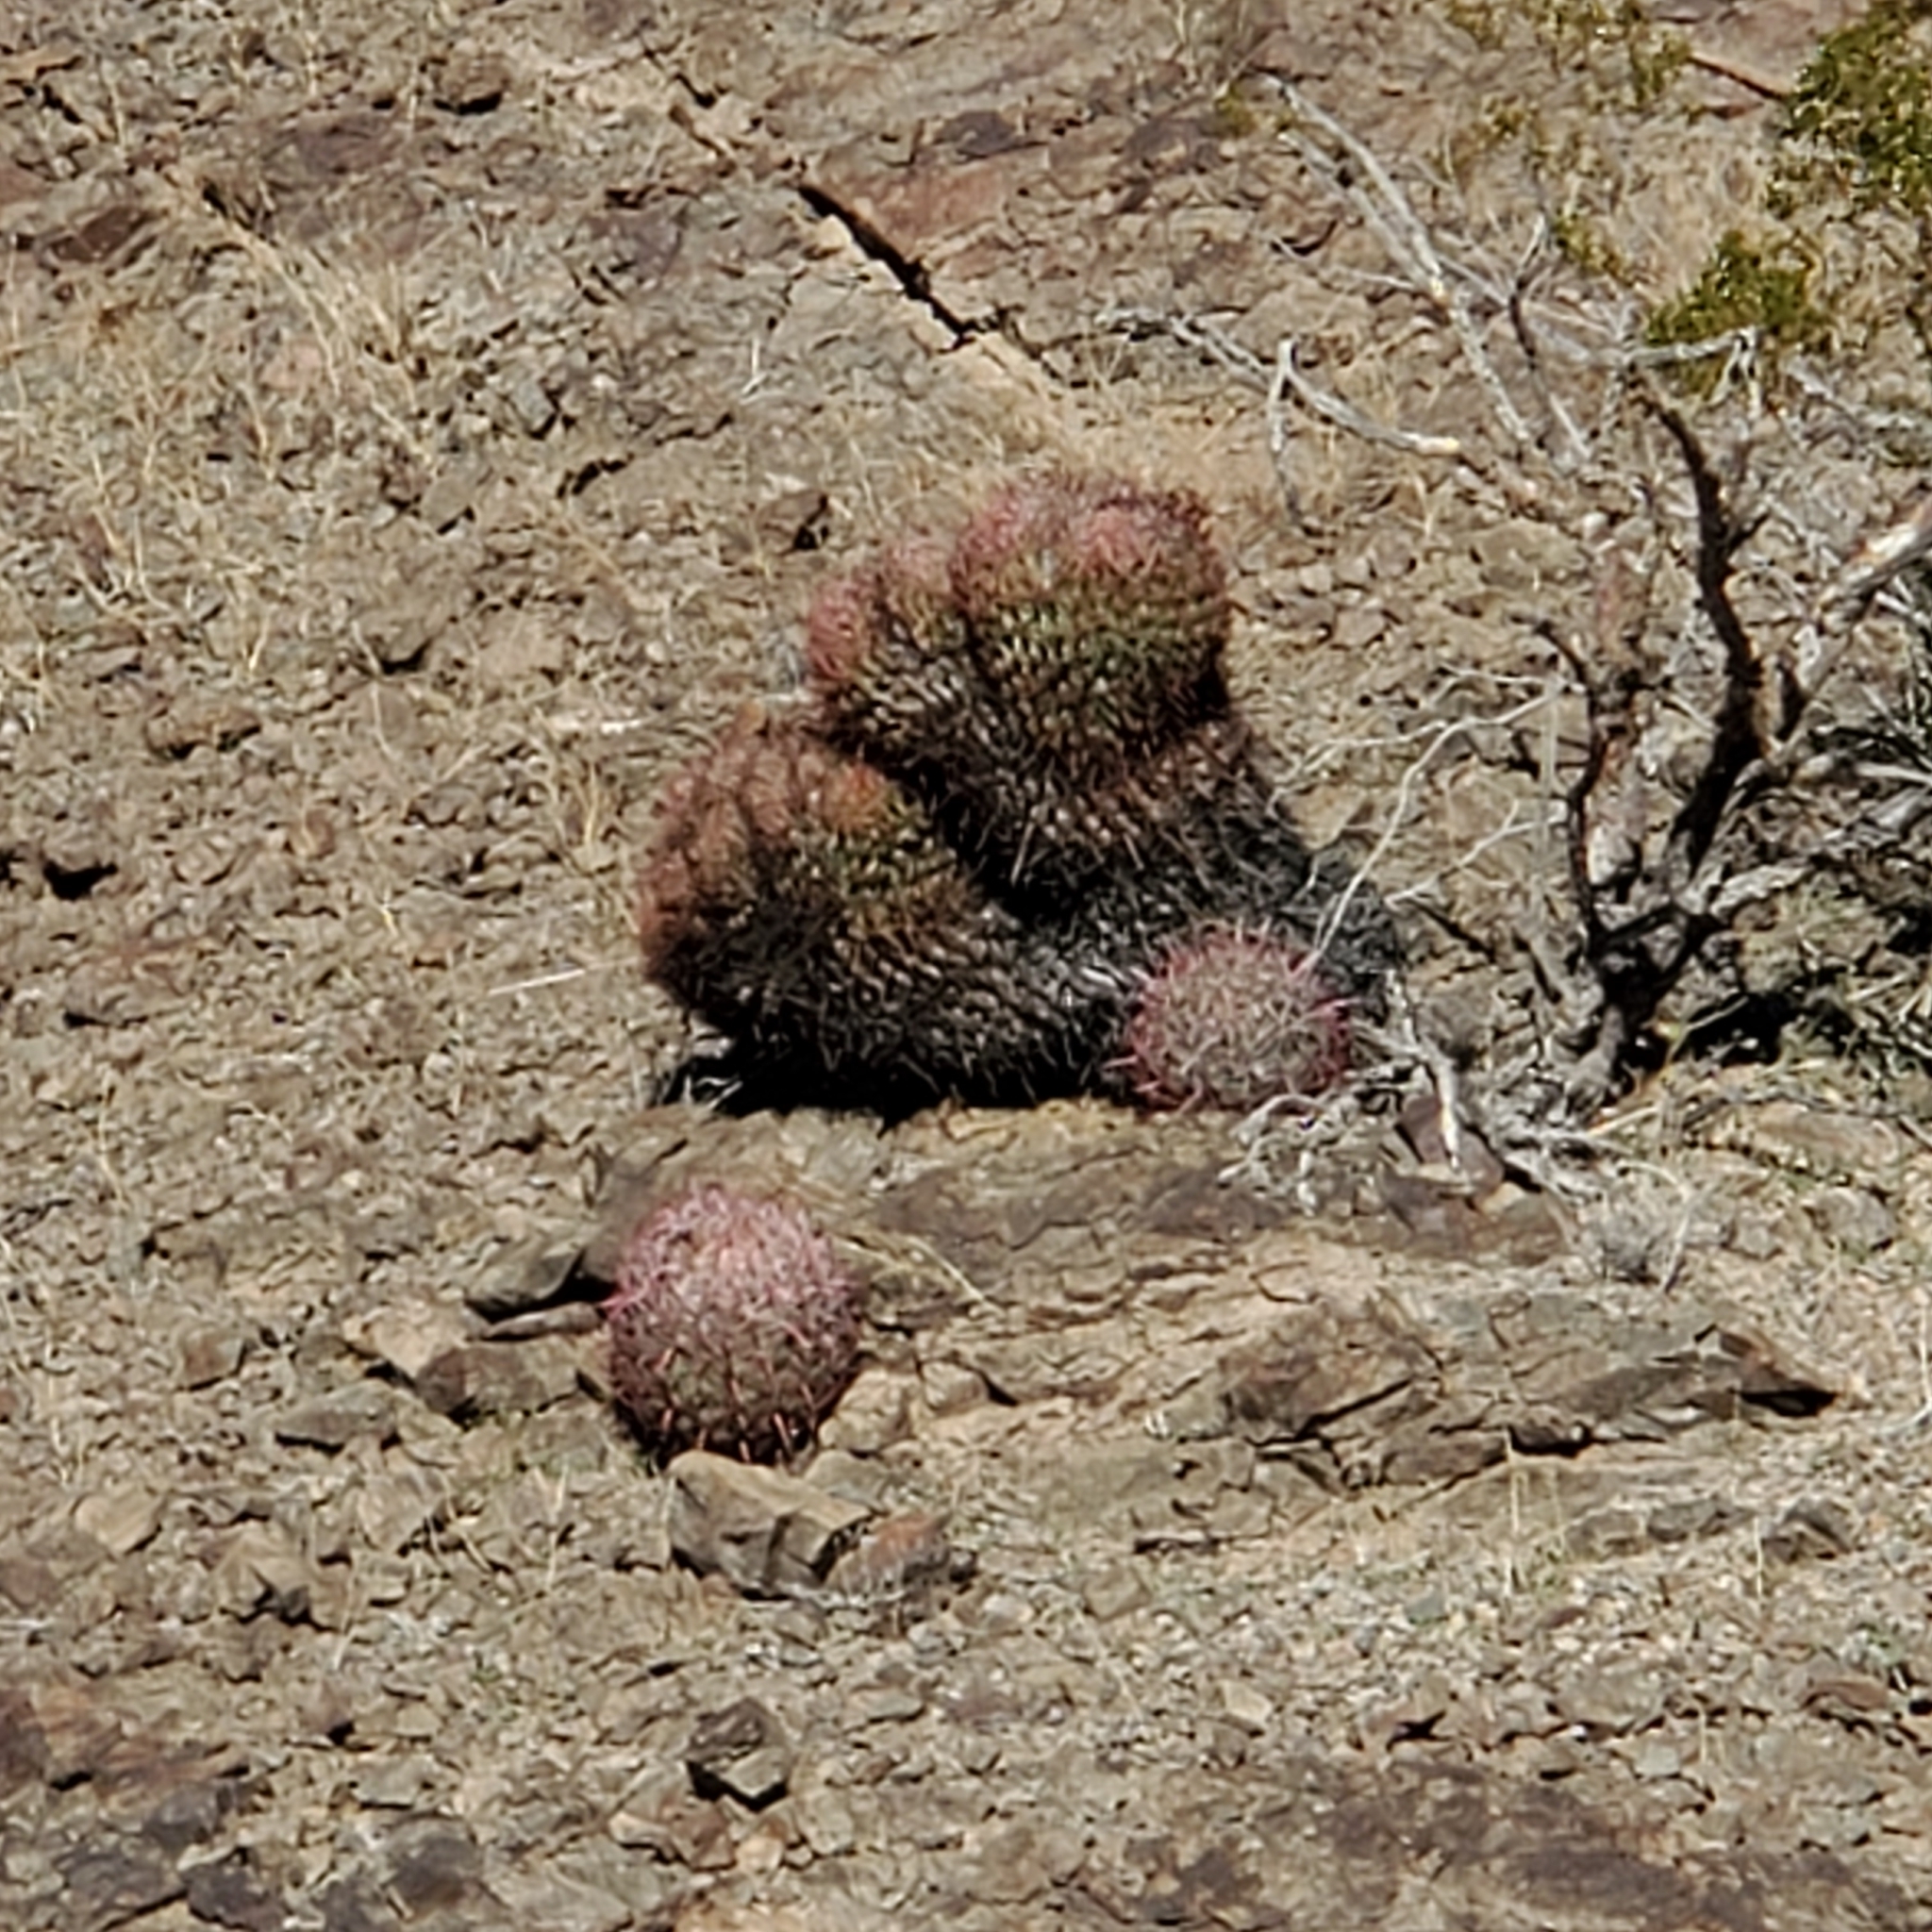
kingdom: Plantae
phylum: Tracheophyta
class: Magnoliopsida
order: Caryophyllales
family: Cactaceae
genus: Ferocactus
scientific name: Ferocactus cylindraceus
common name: California barrel cactus
